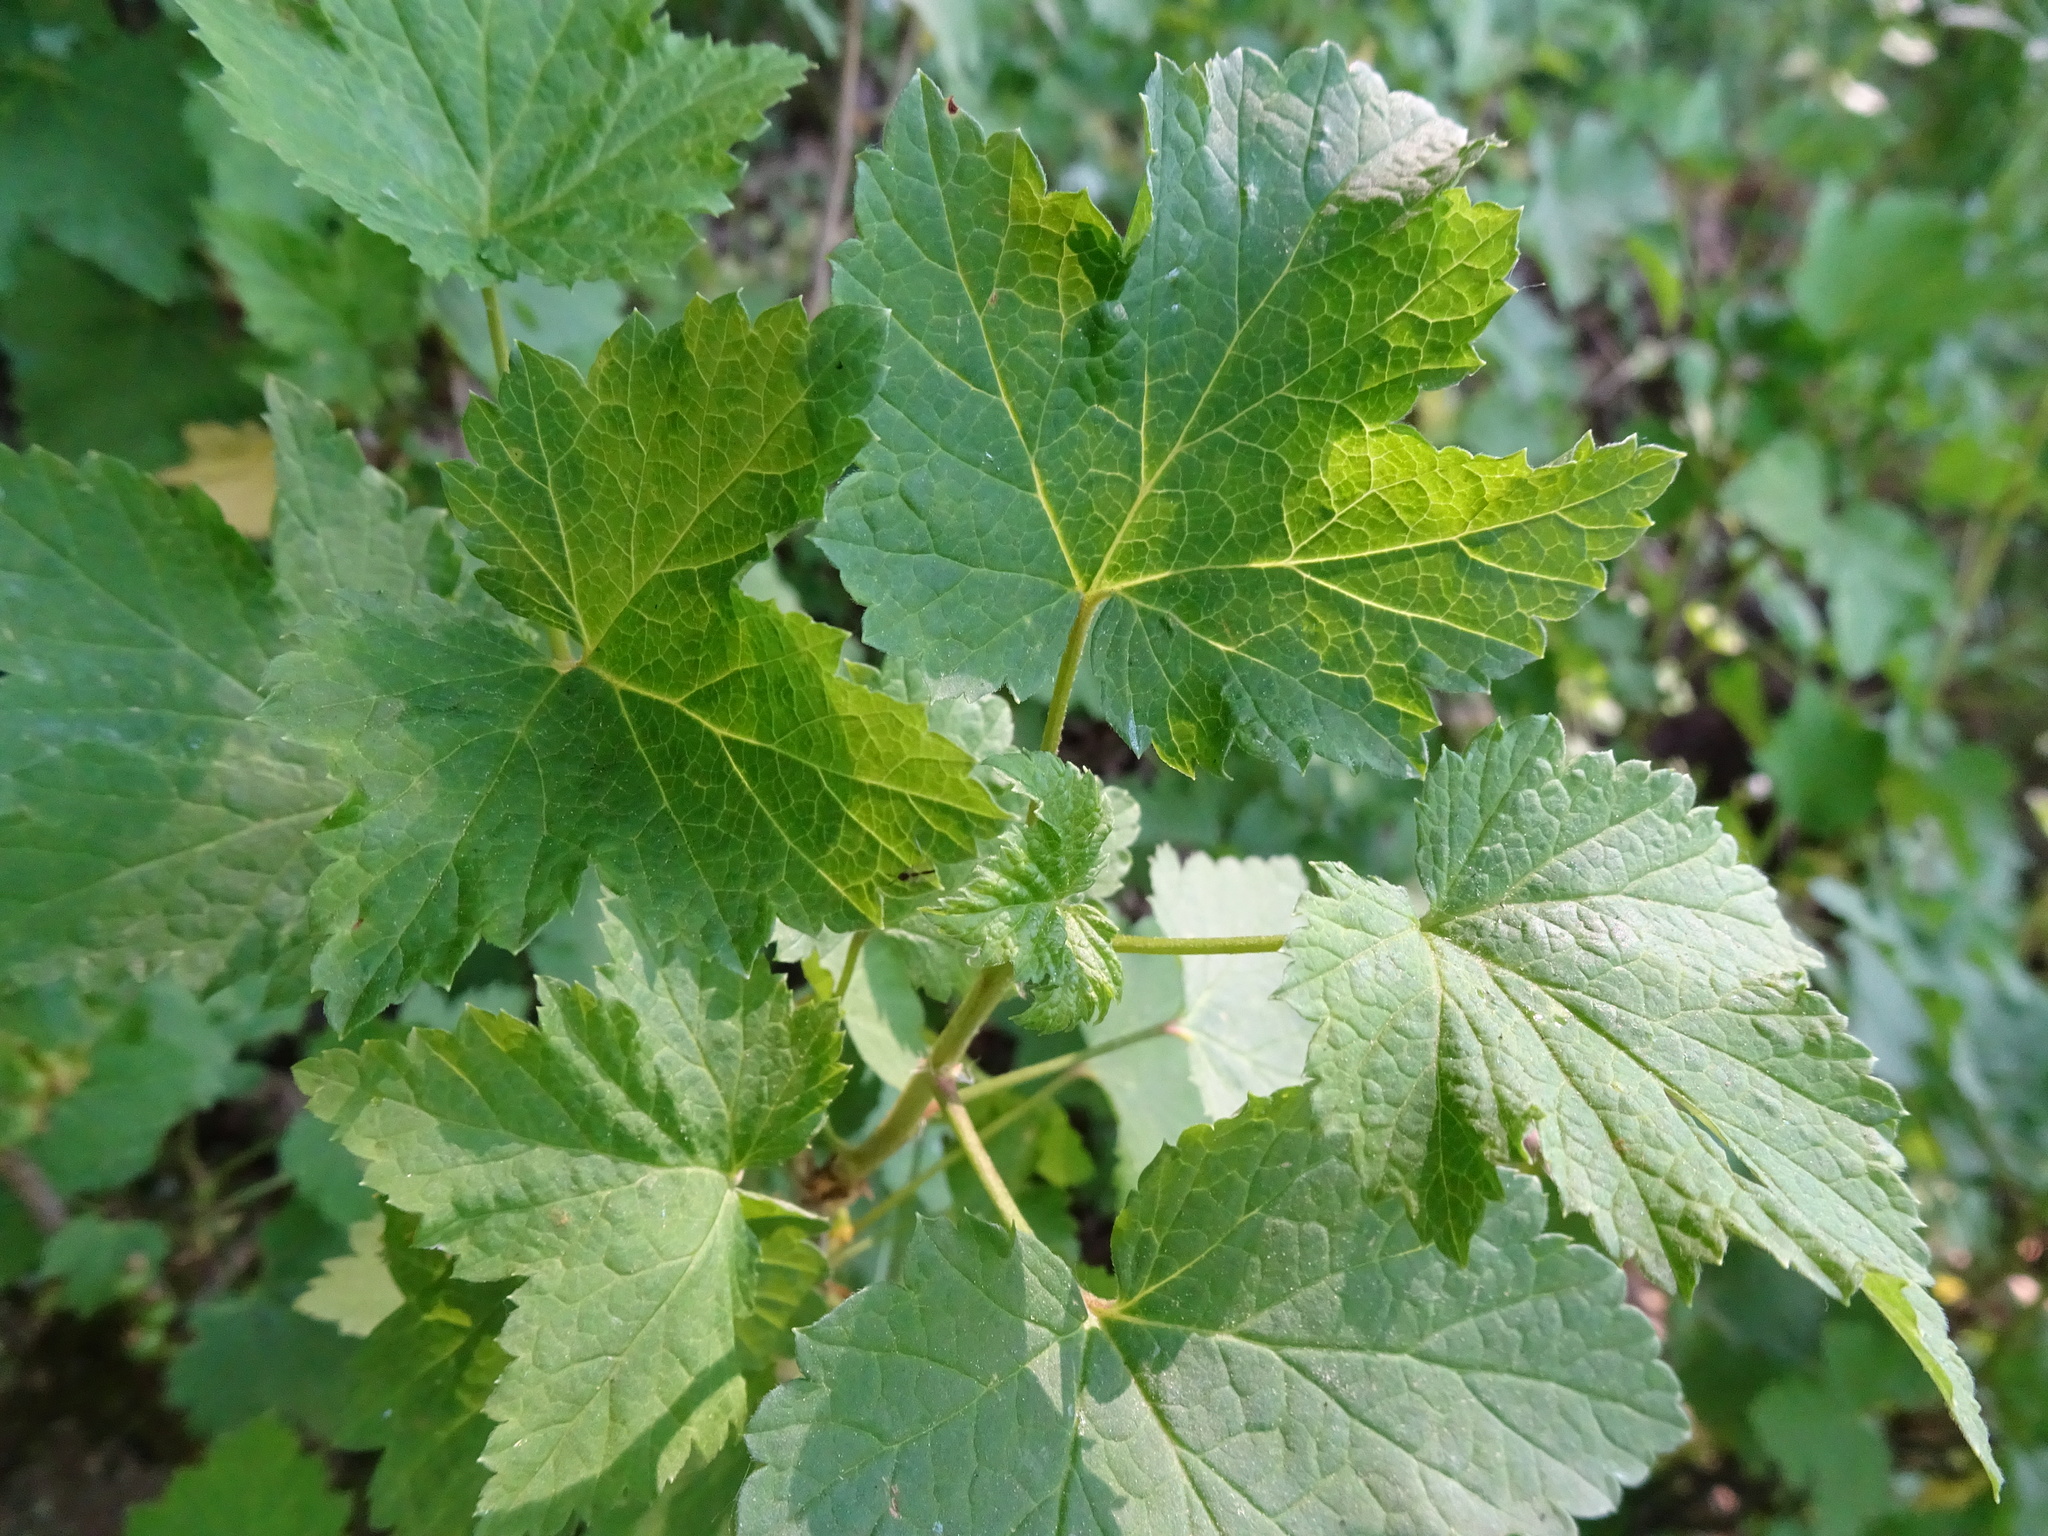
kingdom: Plantae
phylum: Tracheophyta
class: Magnoliopsida
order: Saxifragales
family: Grossulariaceae
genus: Ribes
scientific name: Ribes rubrum
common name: Red currant
